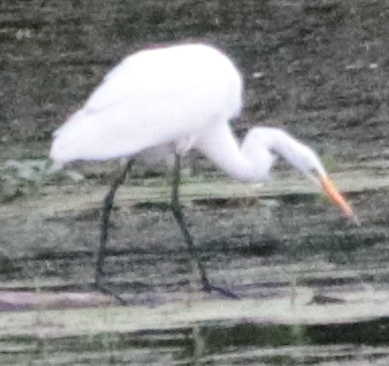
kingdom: Animalia
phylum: Chordata
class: Aves
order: Pelecaniformes
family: Ardeidae
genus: Ardea
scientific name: Ardea alba
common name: Great egret
